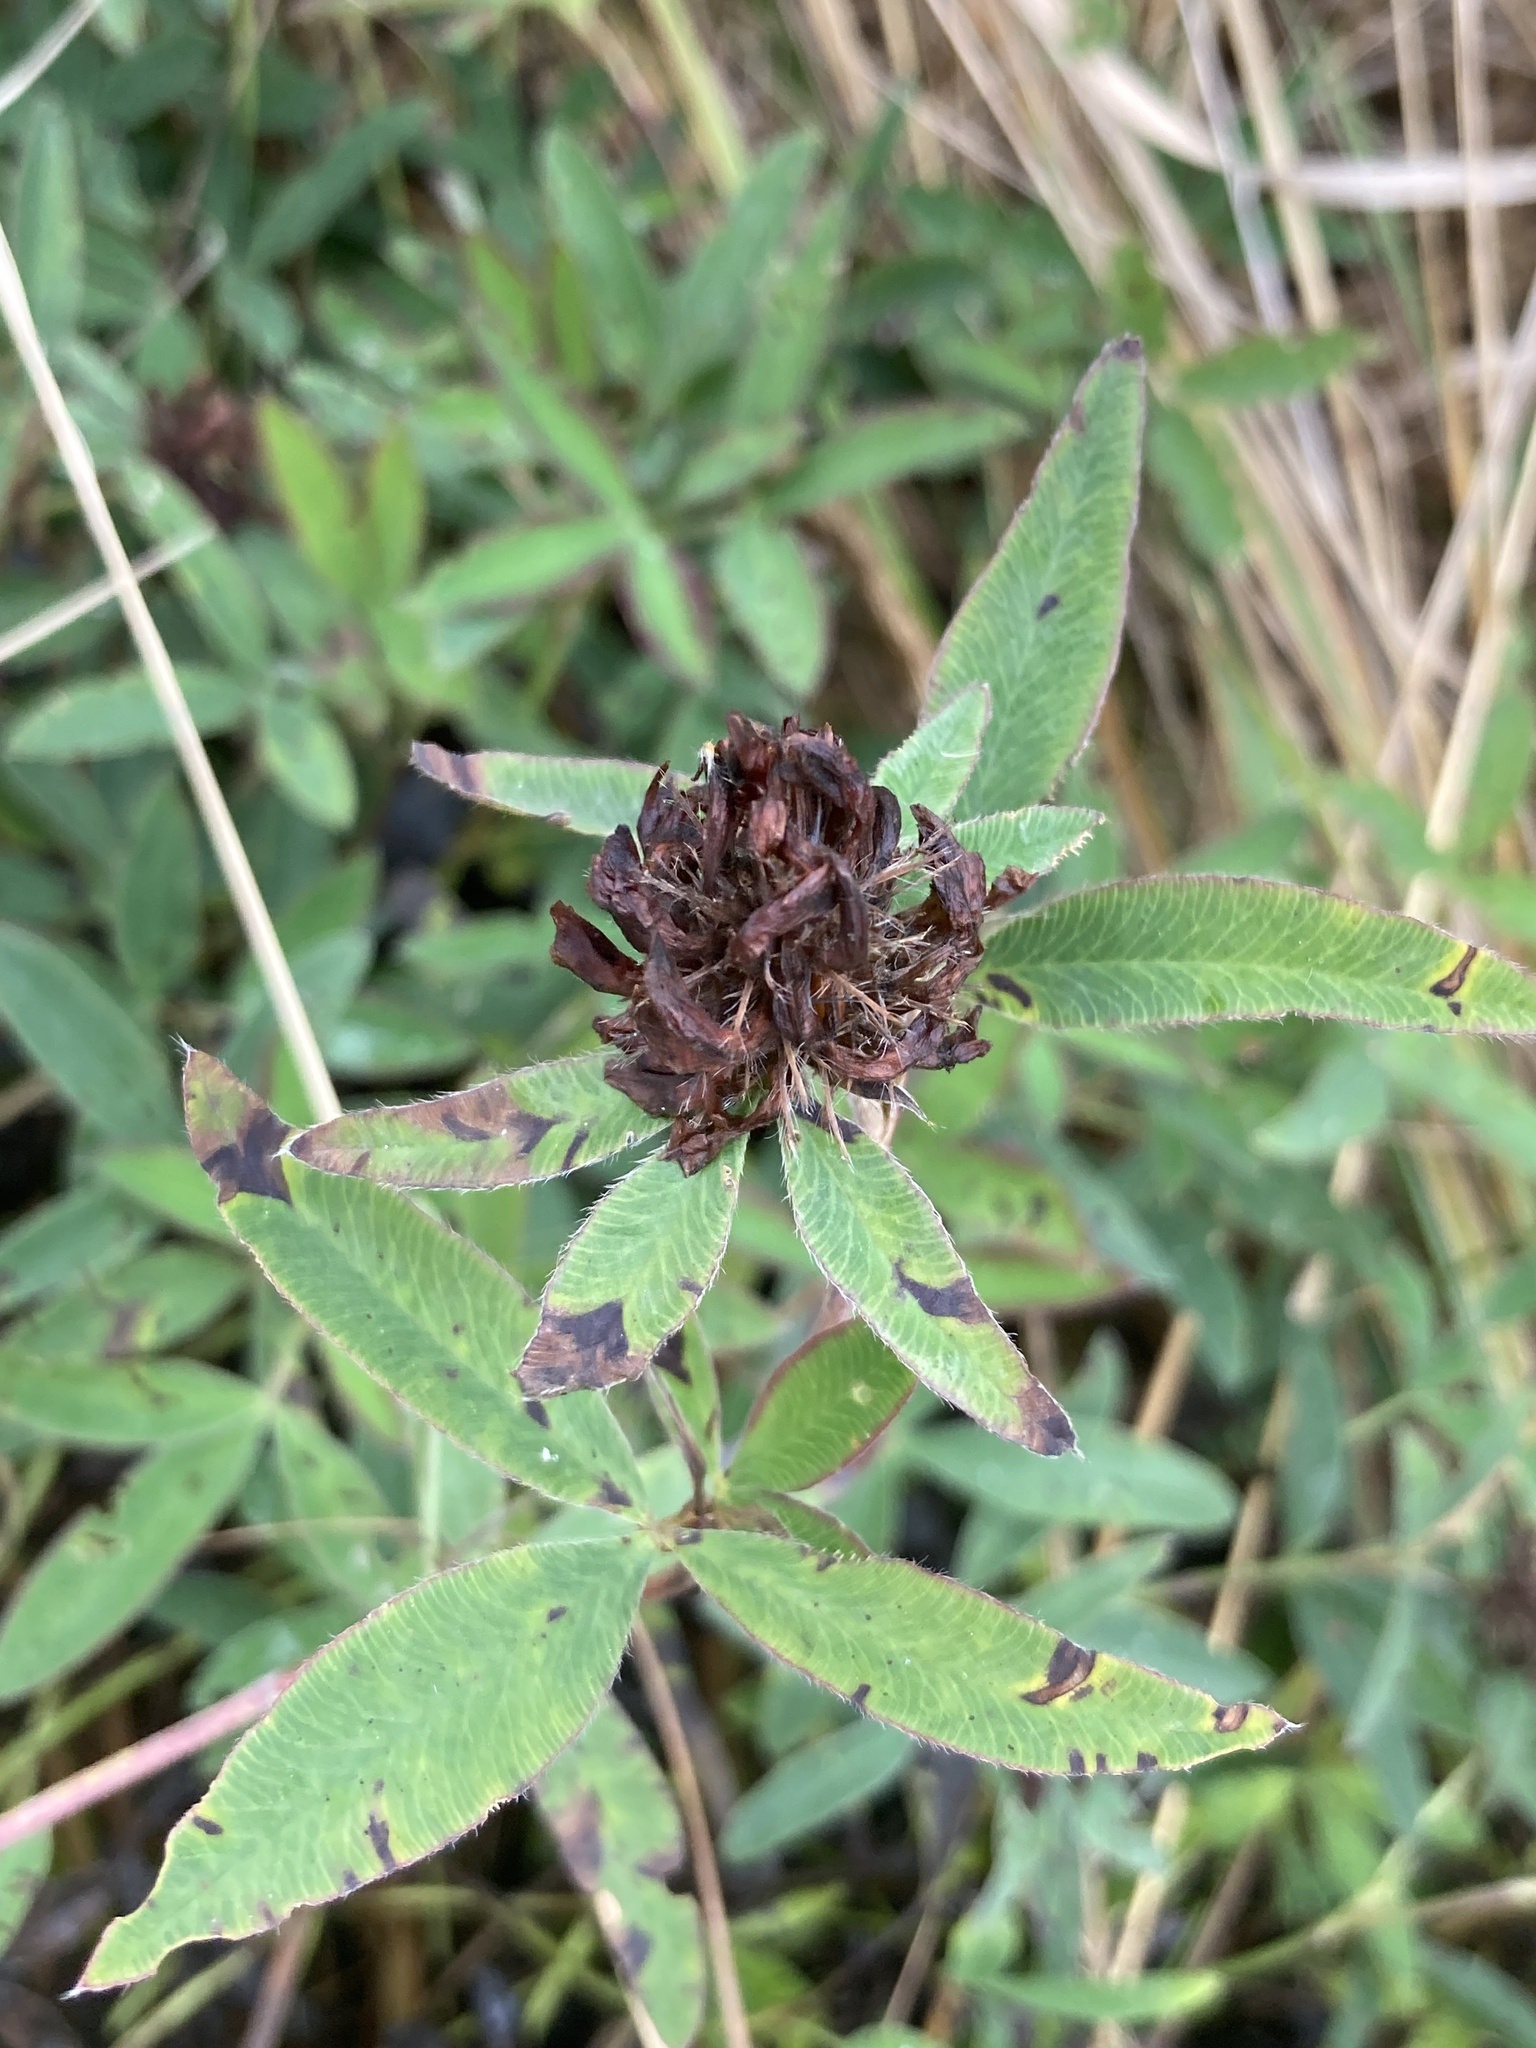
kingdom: Plantae
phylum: Tracheophyta
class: Magnoliopsida
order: Fabales
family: Fabaceae
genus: Trifolium
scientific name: Trifolium medium
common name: Zigzag clover
